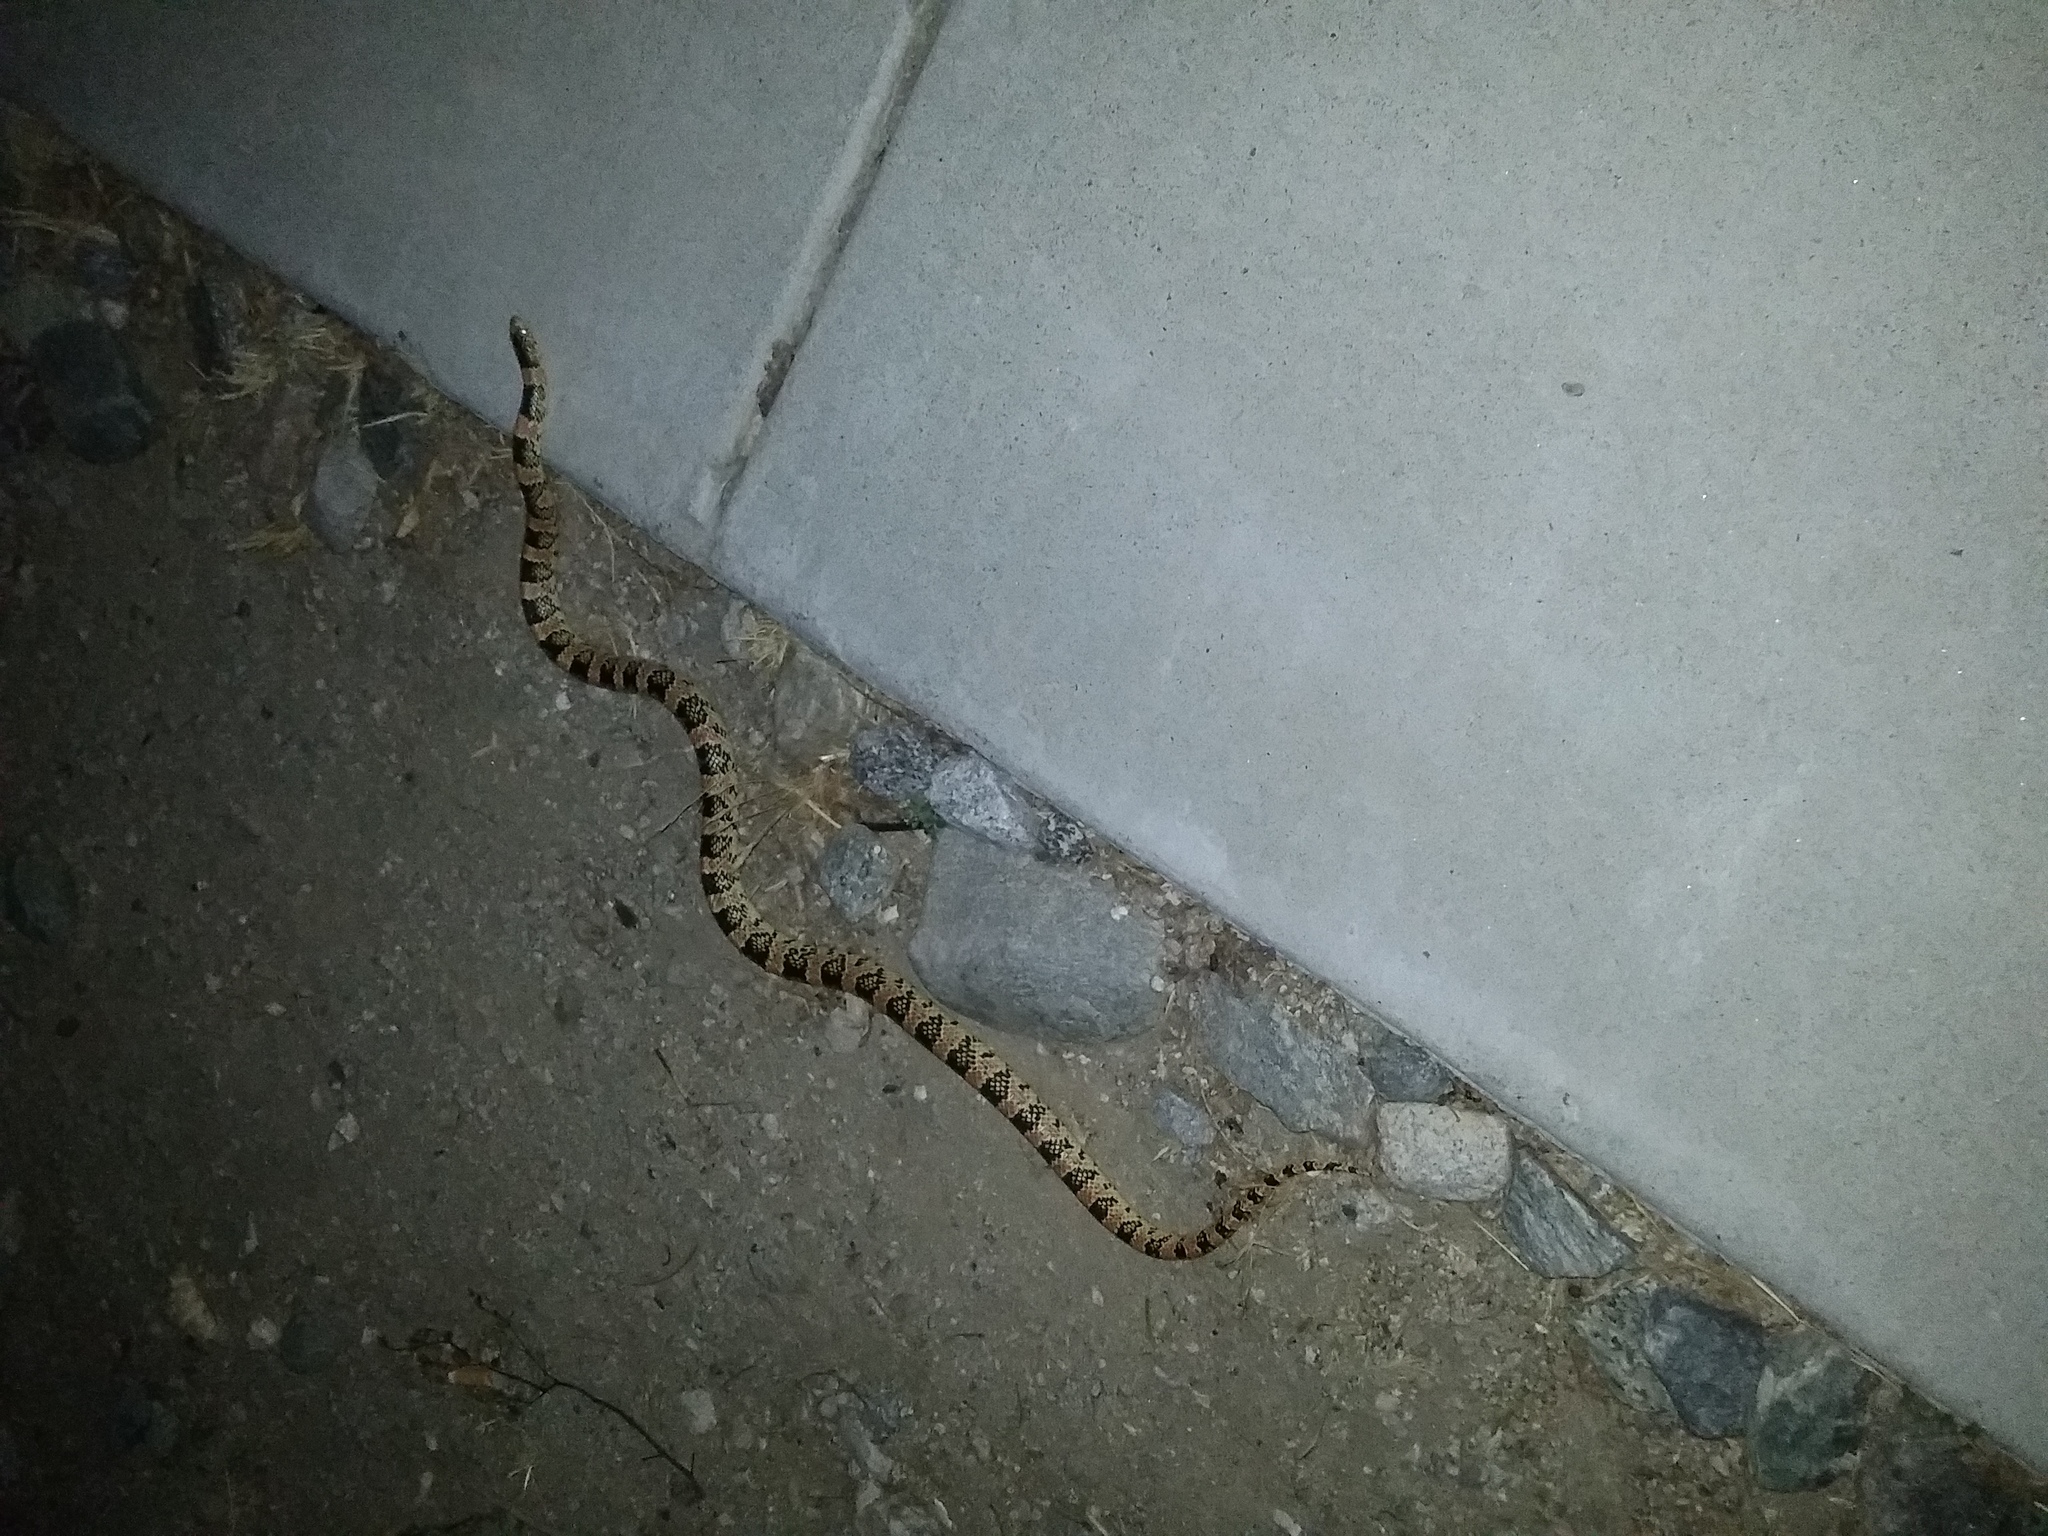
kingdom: Animalia
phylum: Chordata
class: Squamata
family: Colubridae
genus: Rhinocheilus
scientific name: Rhinocheilus lecontei
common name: Longnose snake
